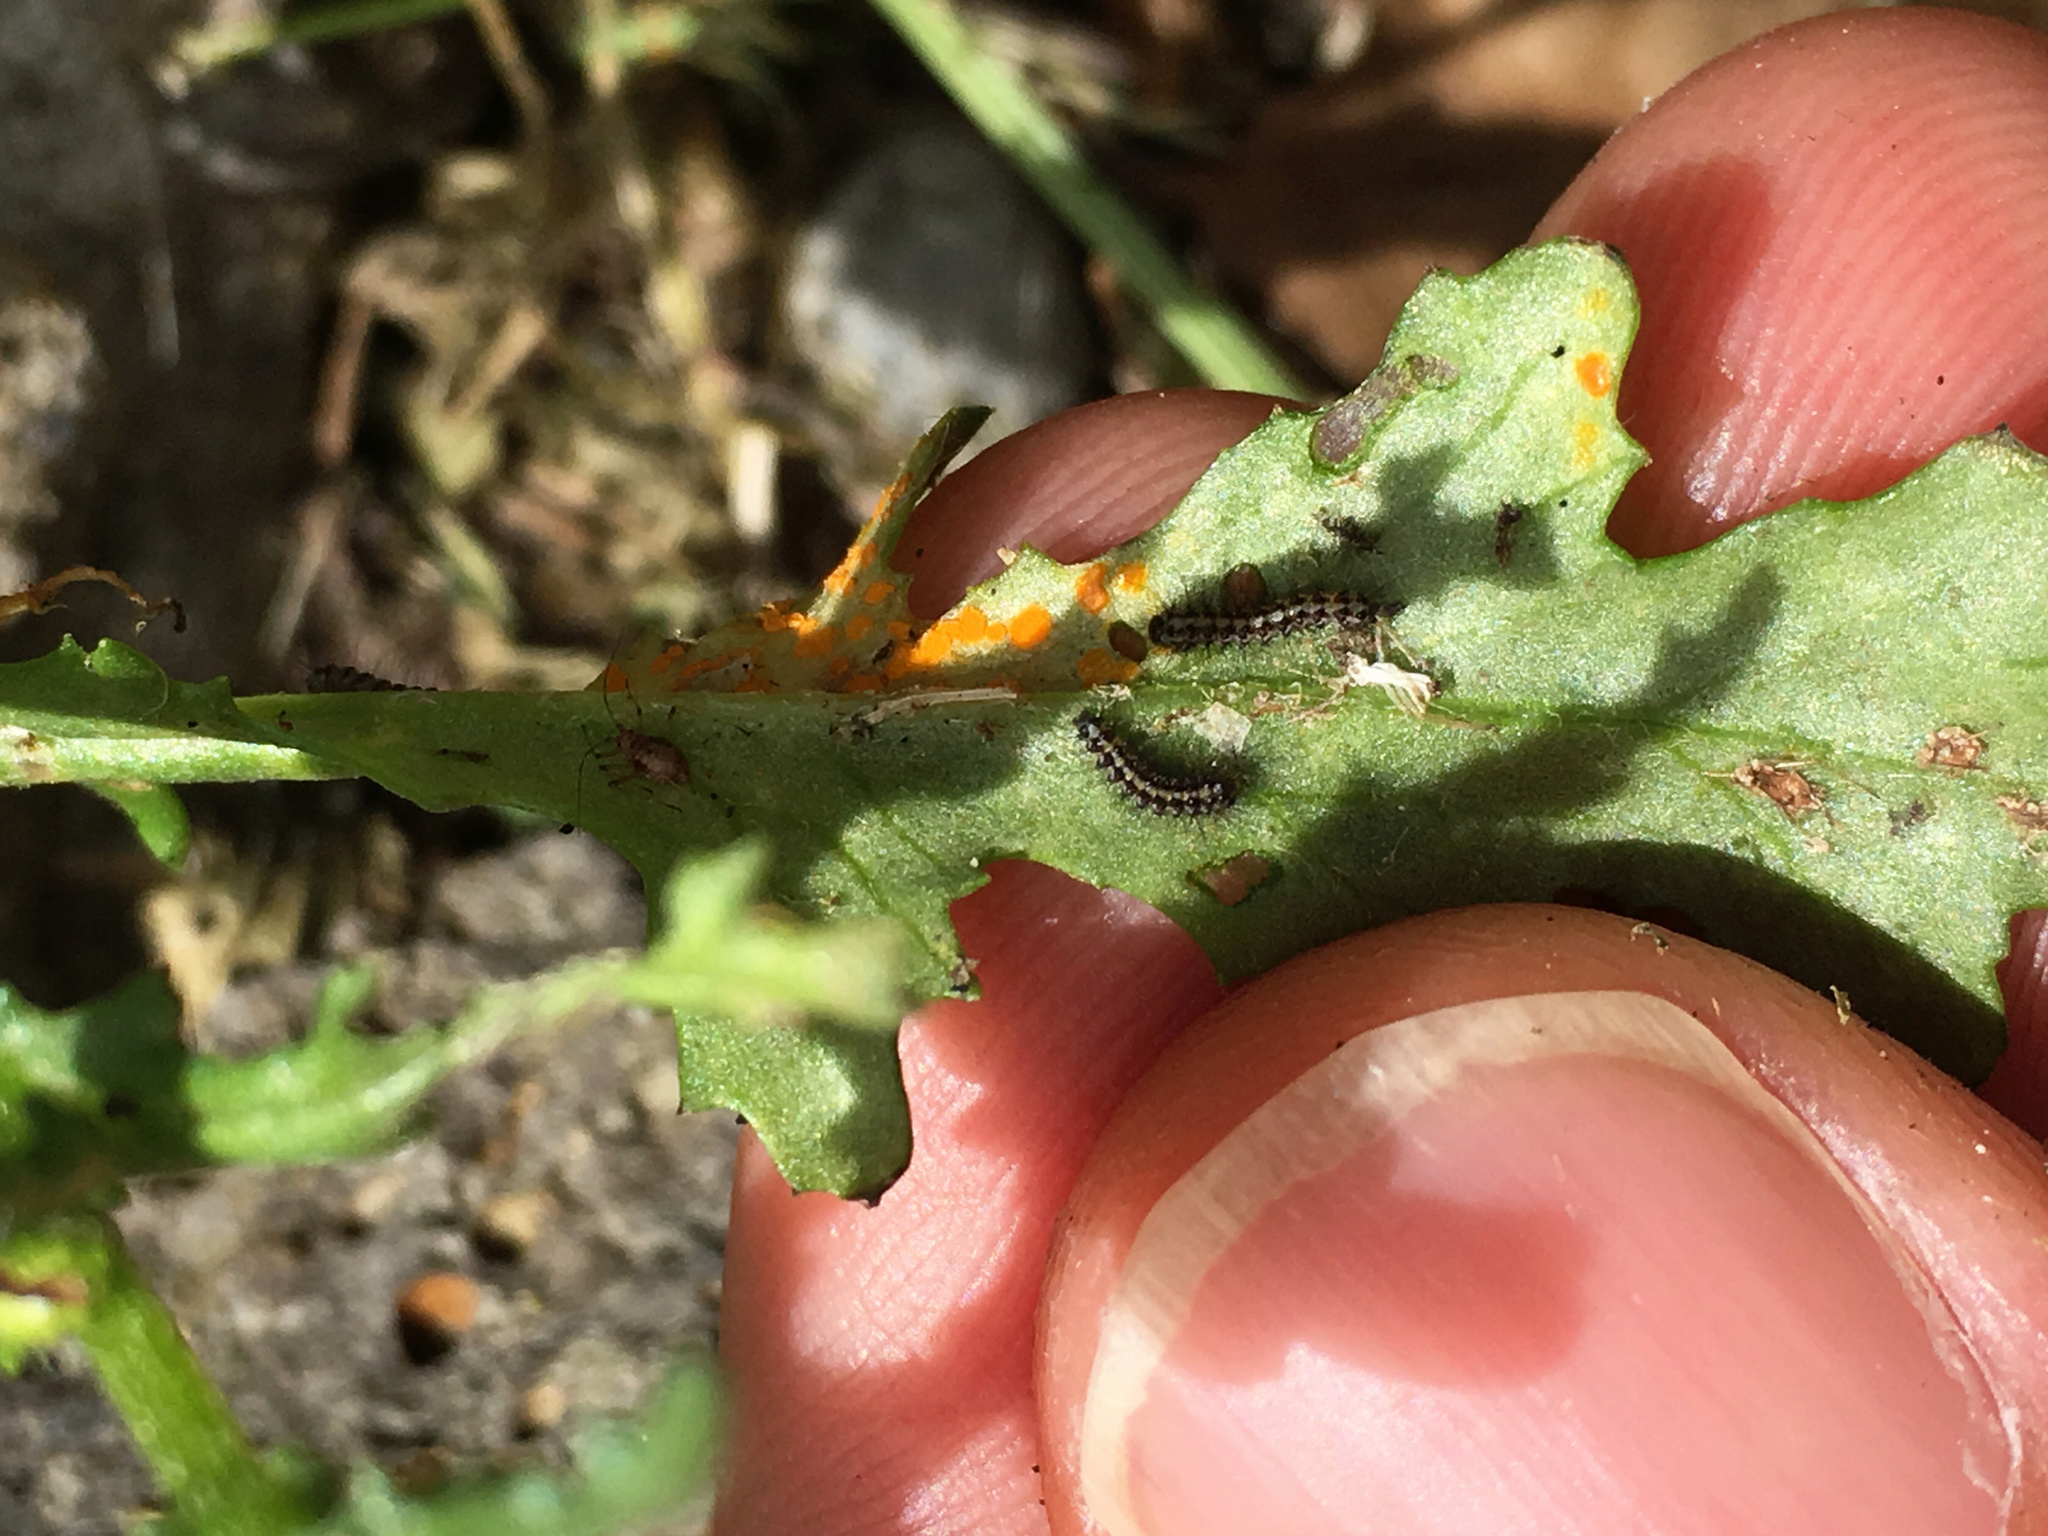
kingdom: Animalia
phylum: Arthropoda
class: Insecta
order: Lepidoptera
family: Erebidae
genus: Nyctemera
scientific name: Nyctemera annulatum
